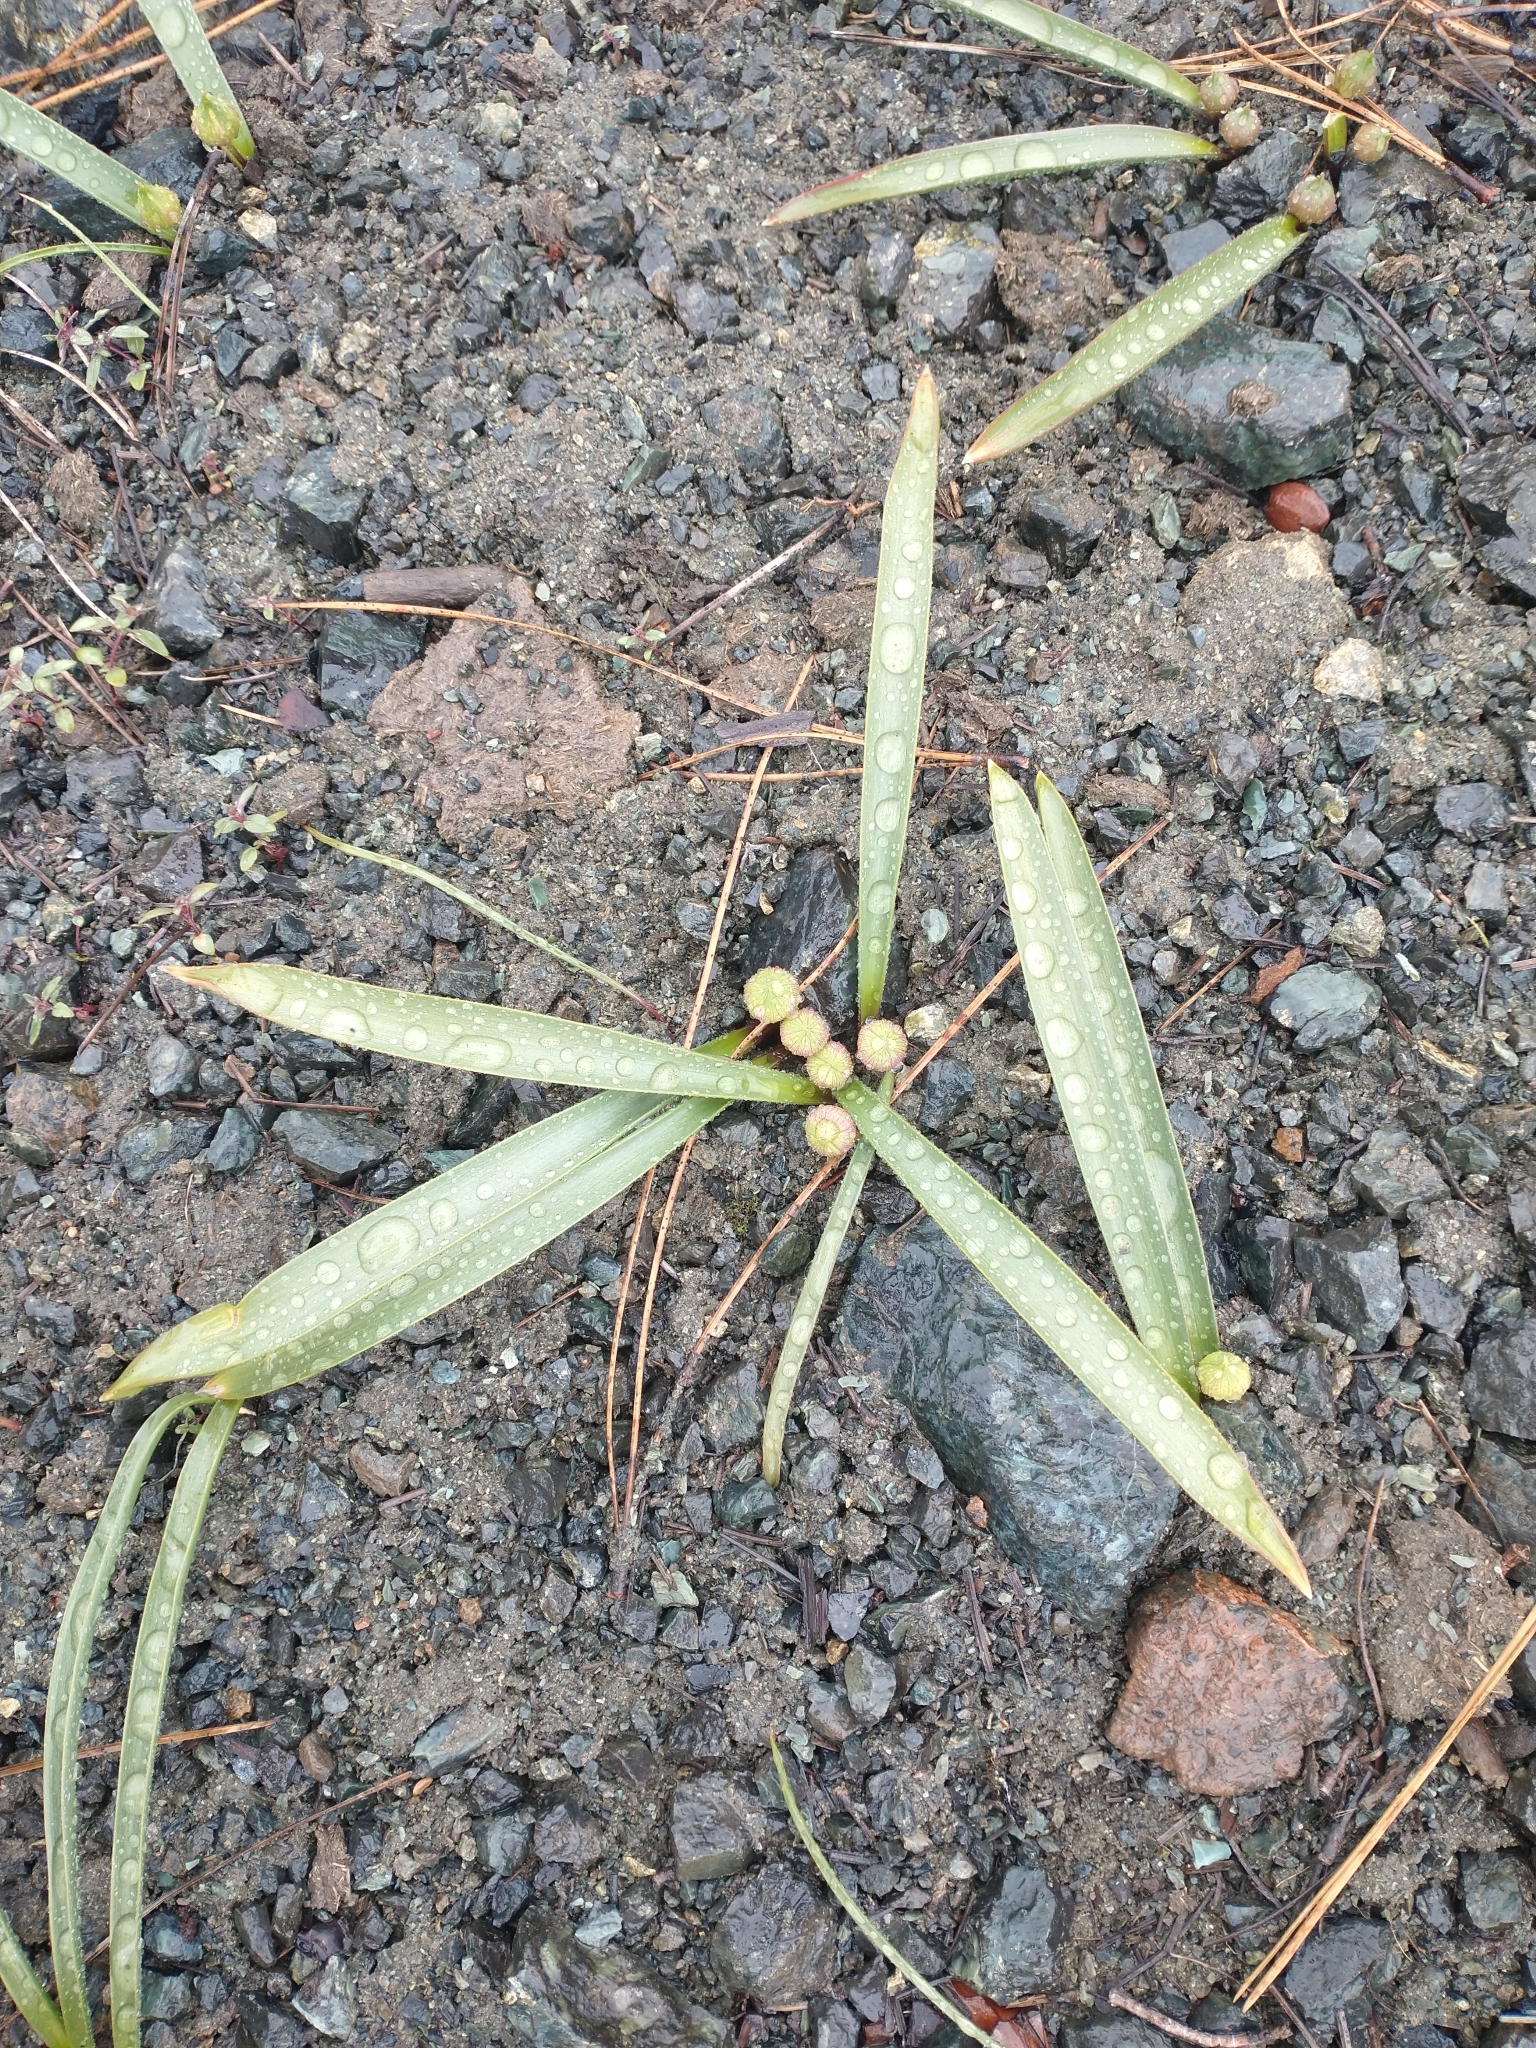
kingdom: Plantae
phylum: Tracheophyta
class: Liliopsida
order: Asparagales
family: Amaryllidaceae
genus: Allium
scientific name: Allium hoffmanii
